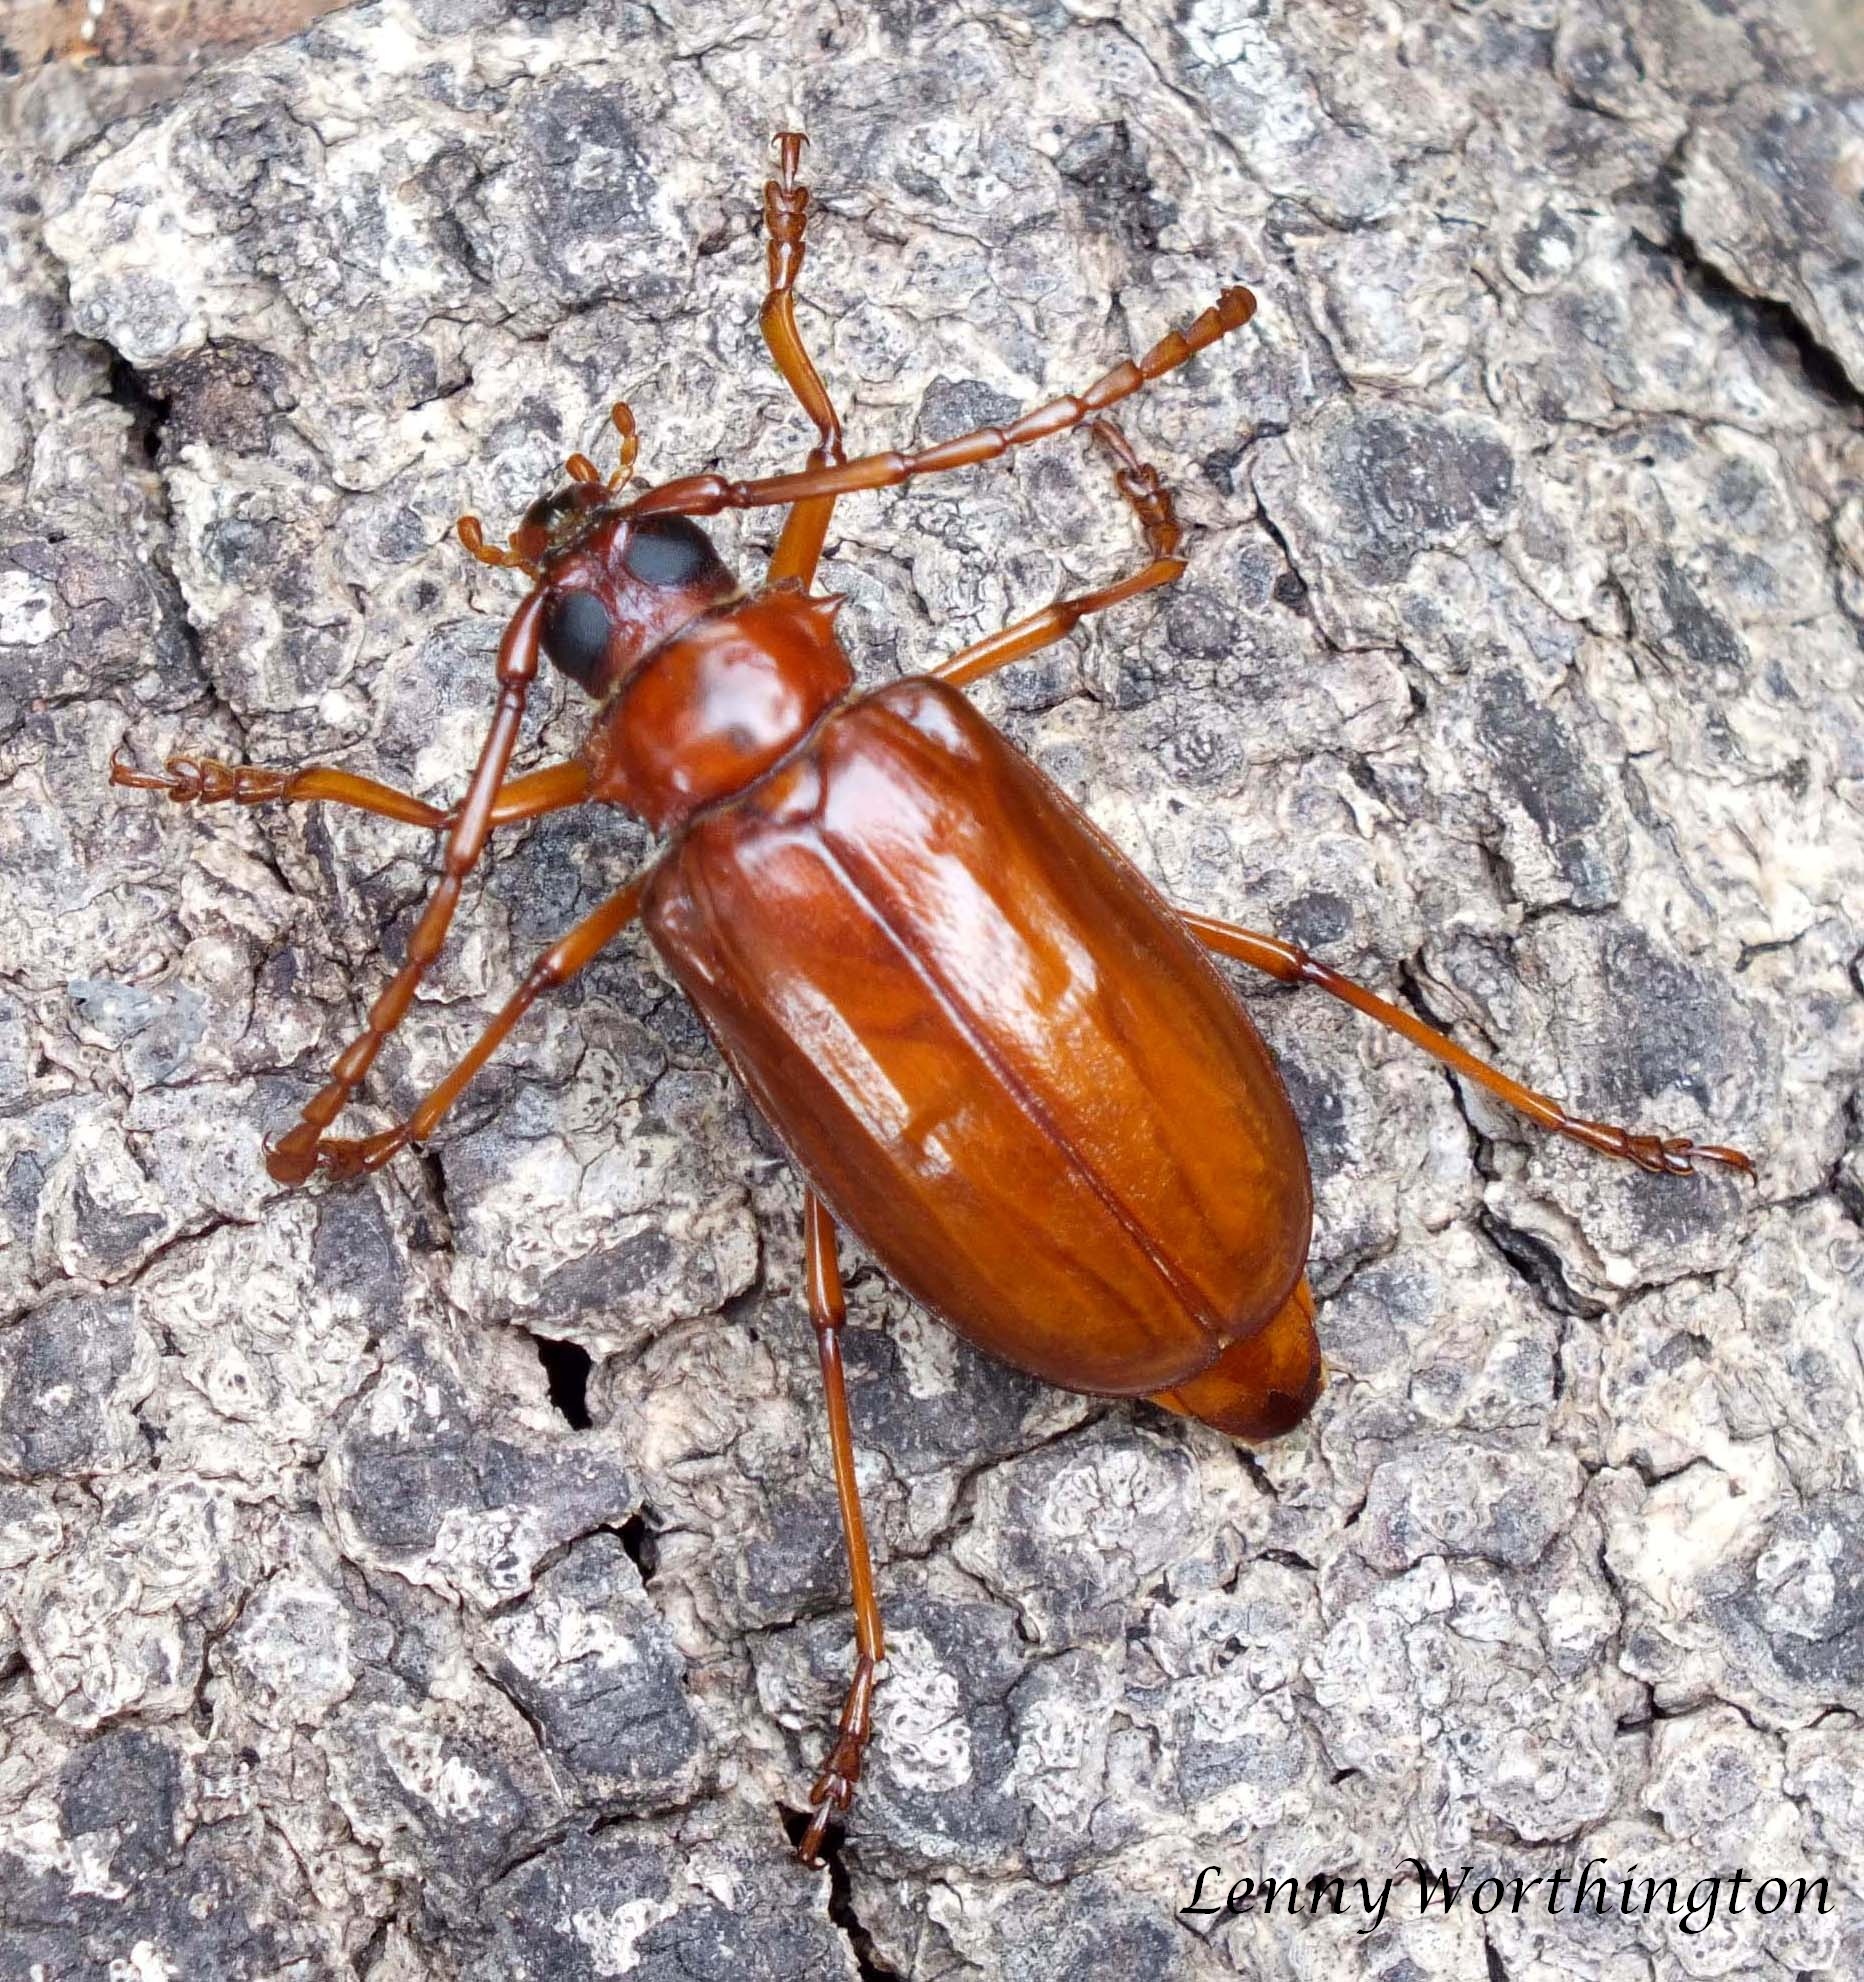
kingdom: Animalia
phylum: Arthropoda
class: Insecta
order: Coleoptera
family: Cerambycidae
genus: Dorysthenes
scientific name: Dorysthenes beli
